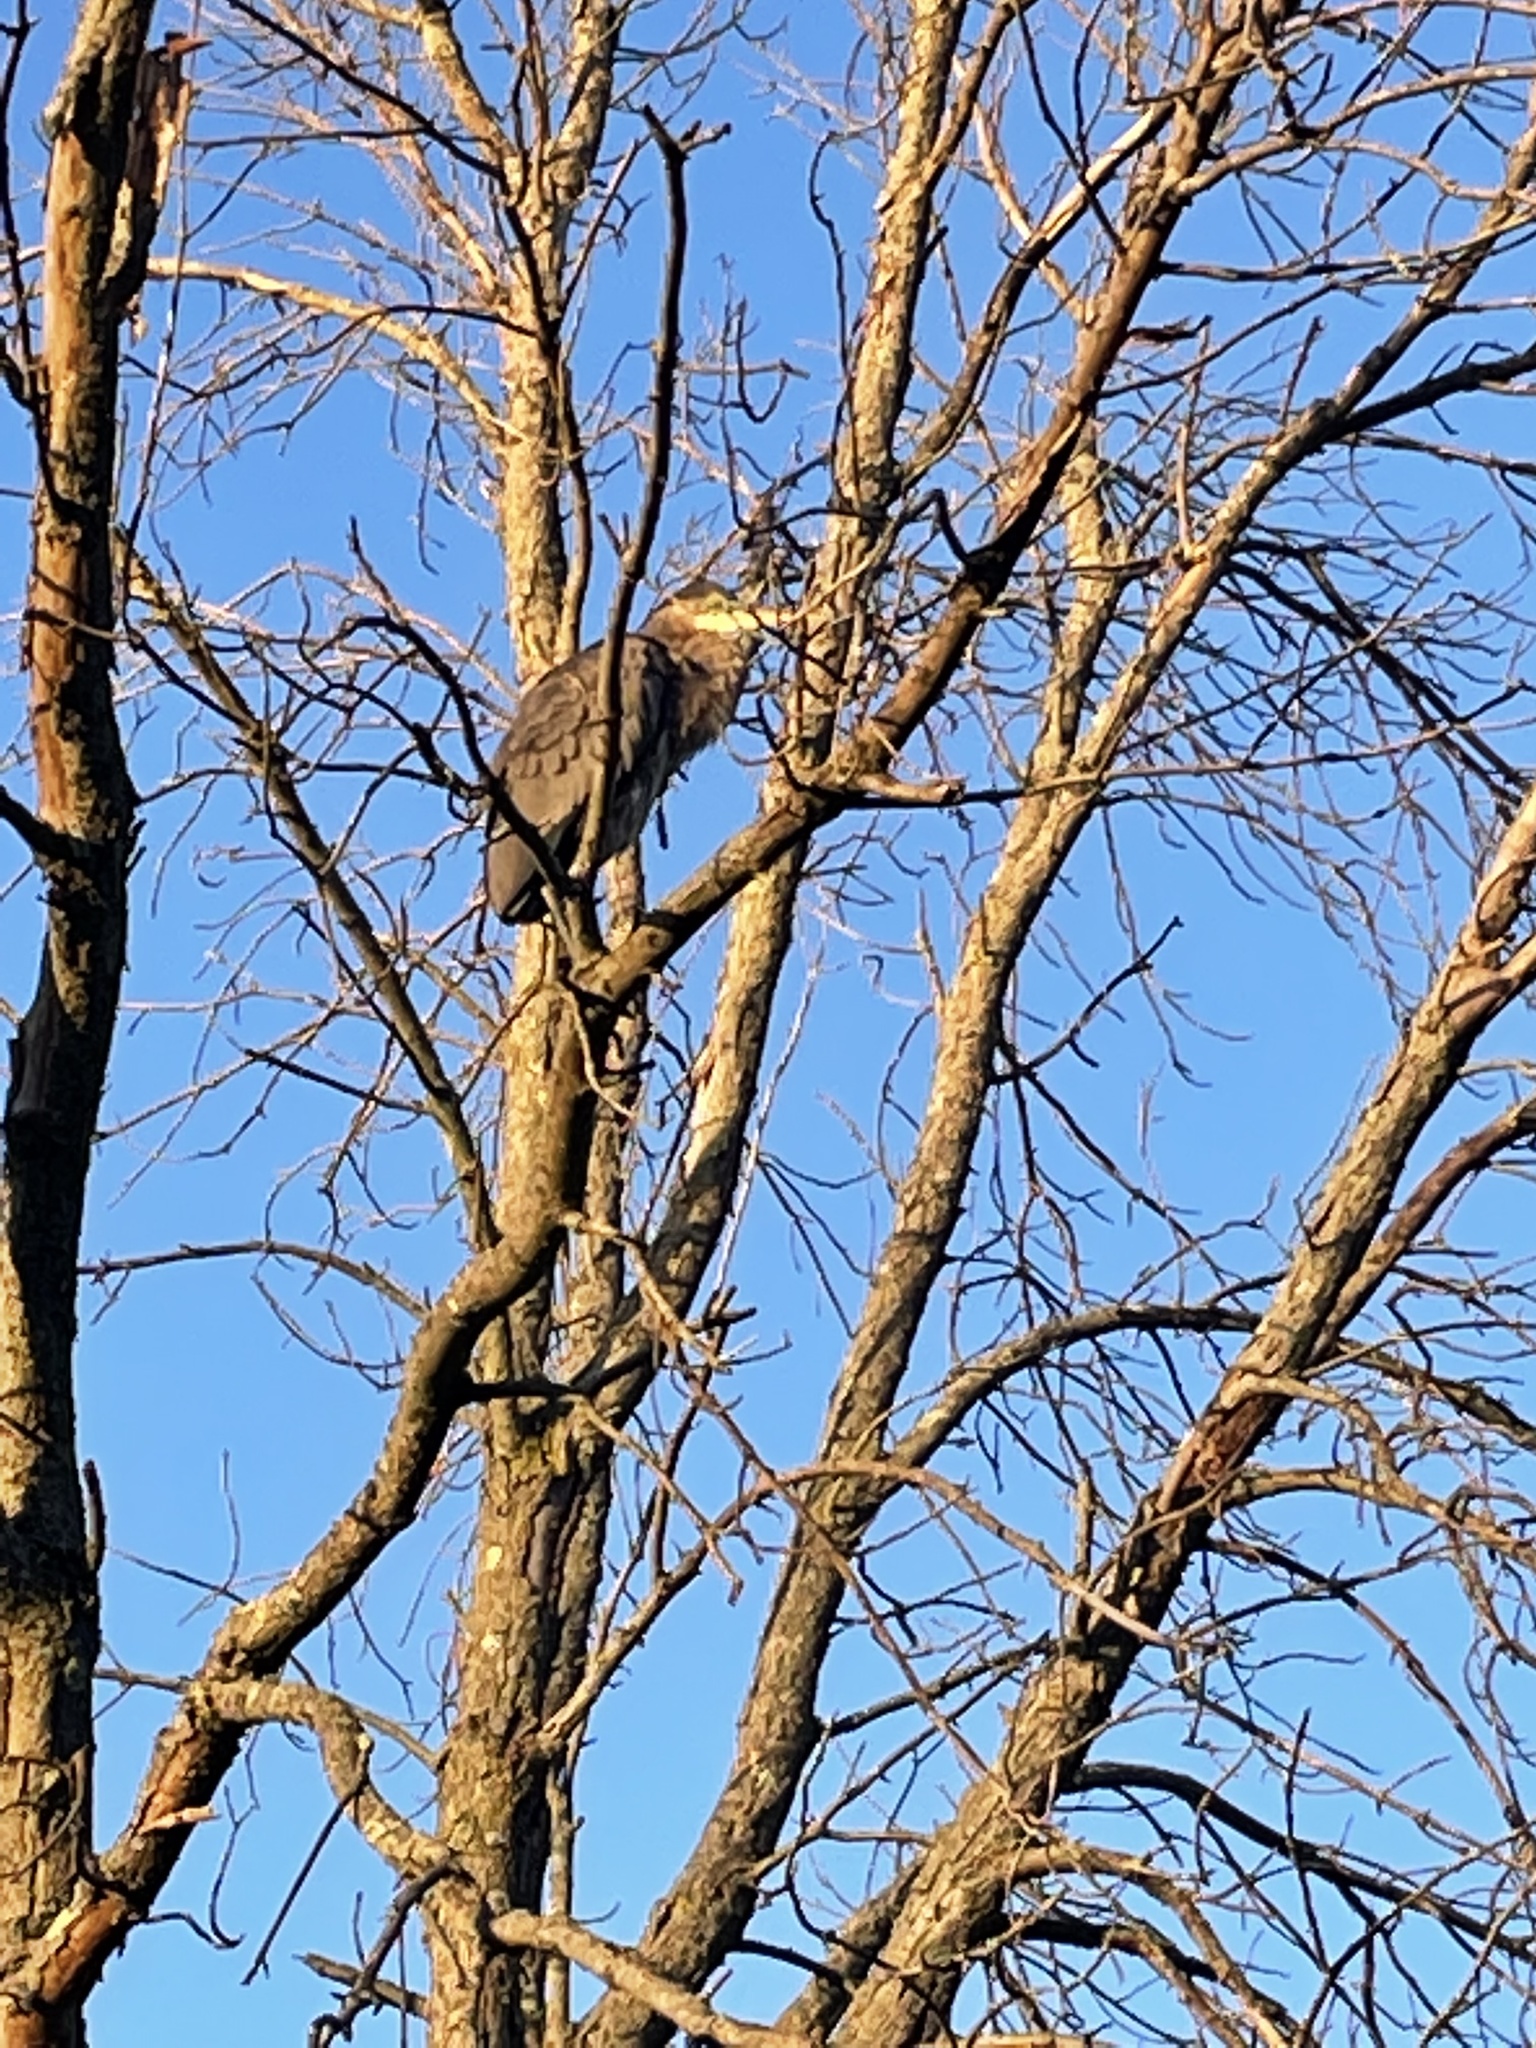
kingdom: Animalia
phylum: Chordata
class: Aves
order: Pelecaniformes
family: Ardeidae
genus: Ardea
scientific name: Ardea herodias
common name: Great blue heron
